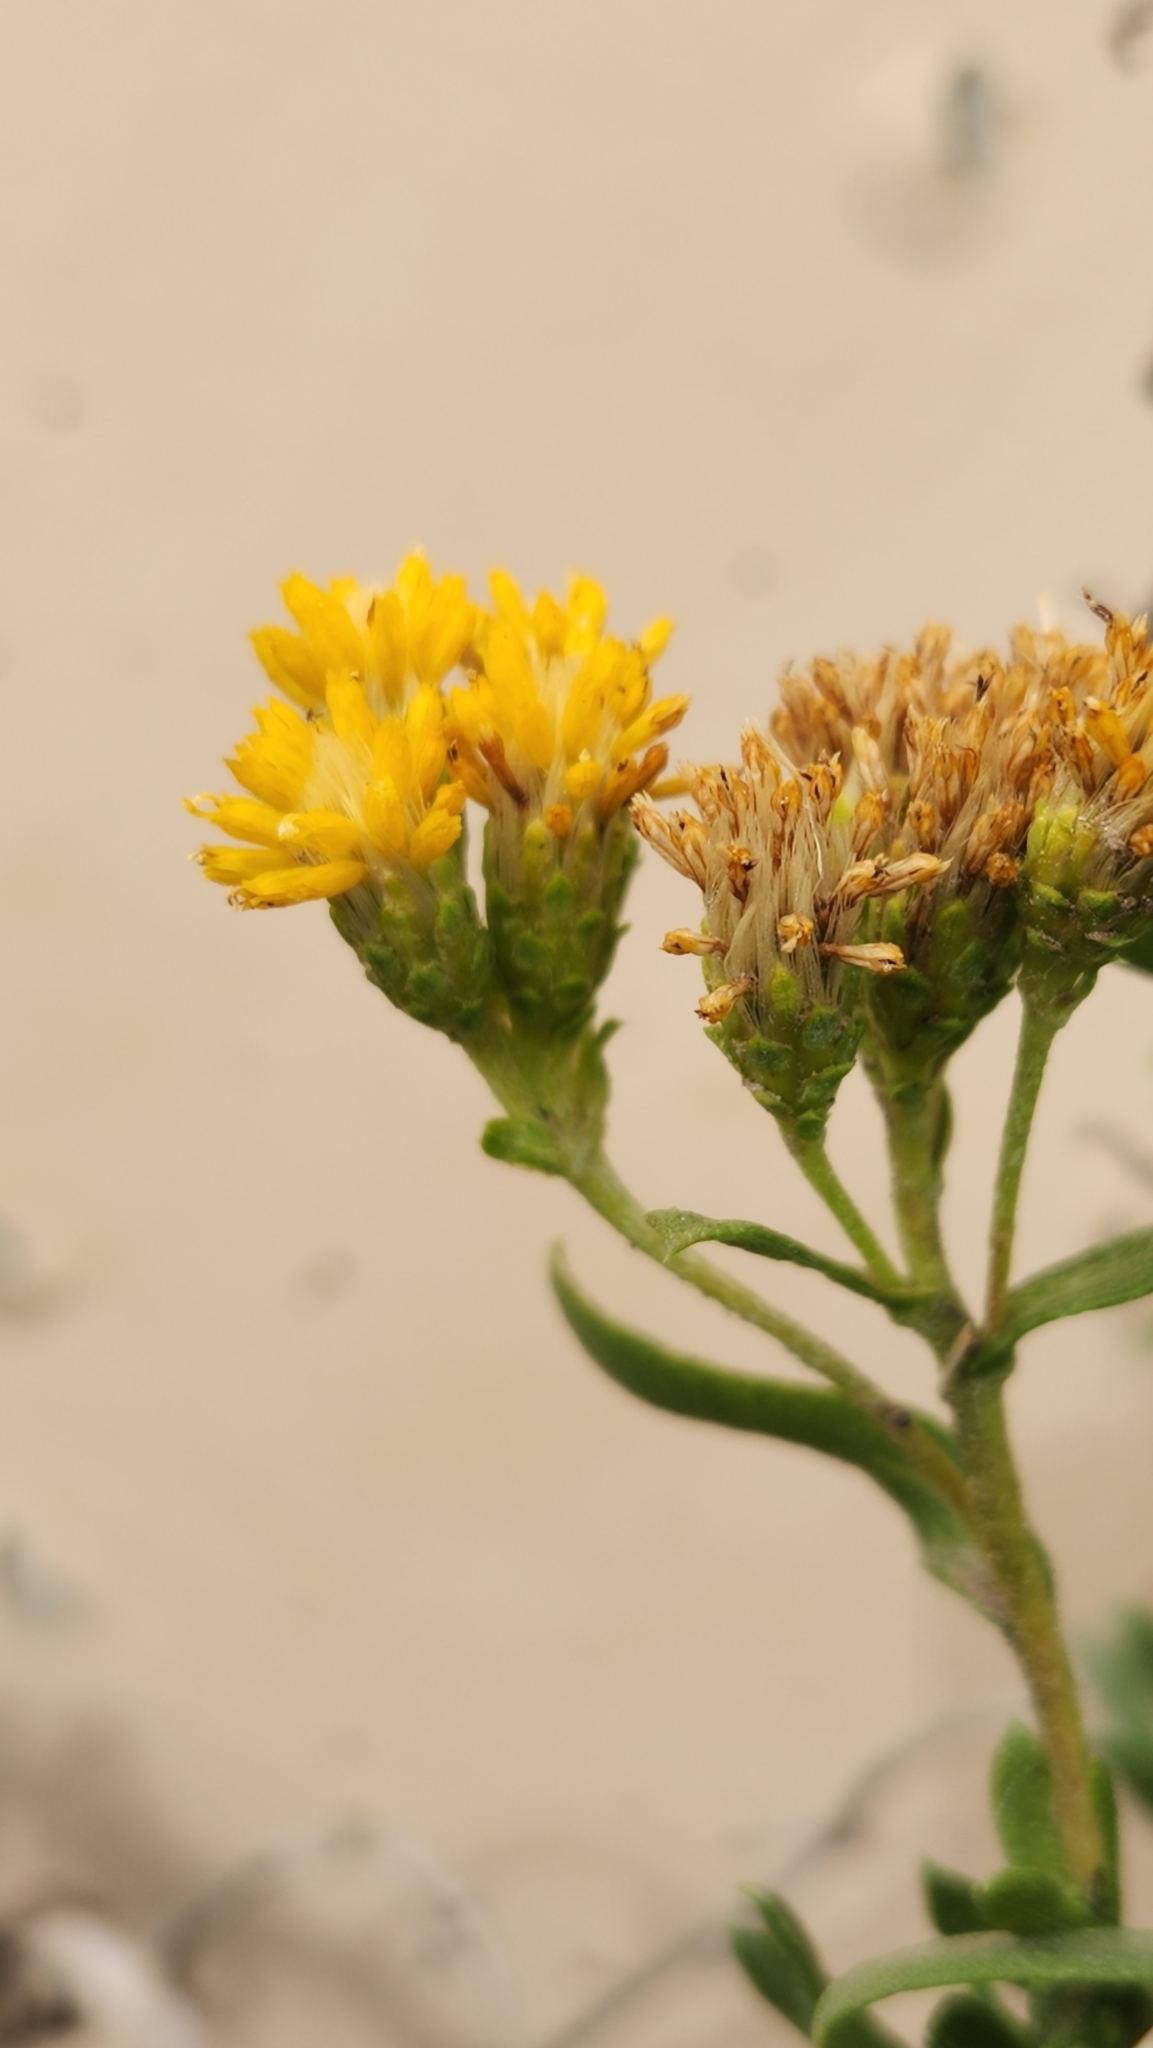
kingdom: Plantae
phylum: Tracheophyta
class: Magnoliopsida
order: Asterales
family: Asteraceae
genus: Isocoma
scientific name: Isocoma menziesii
